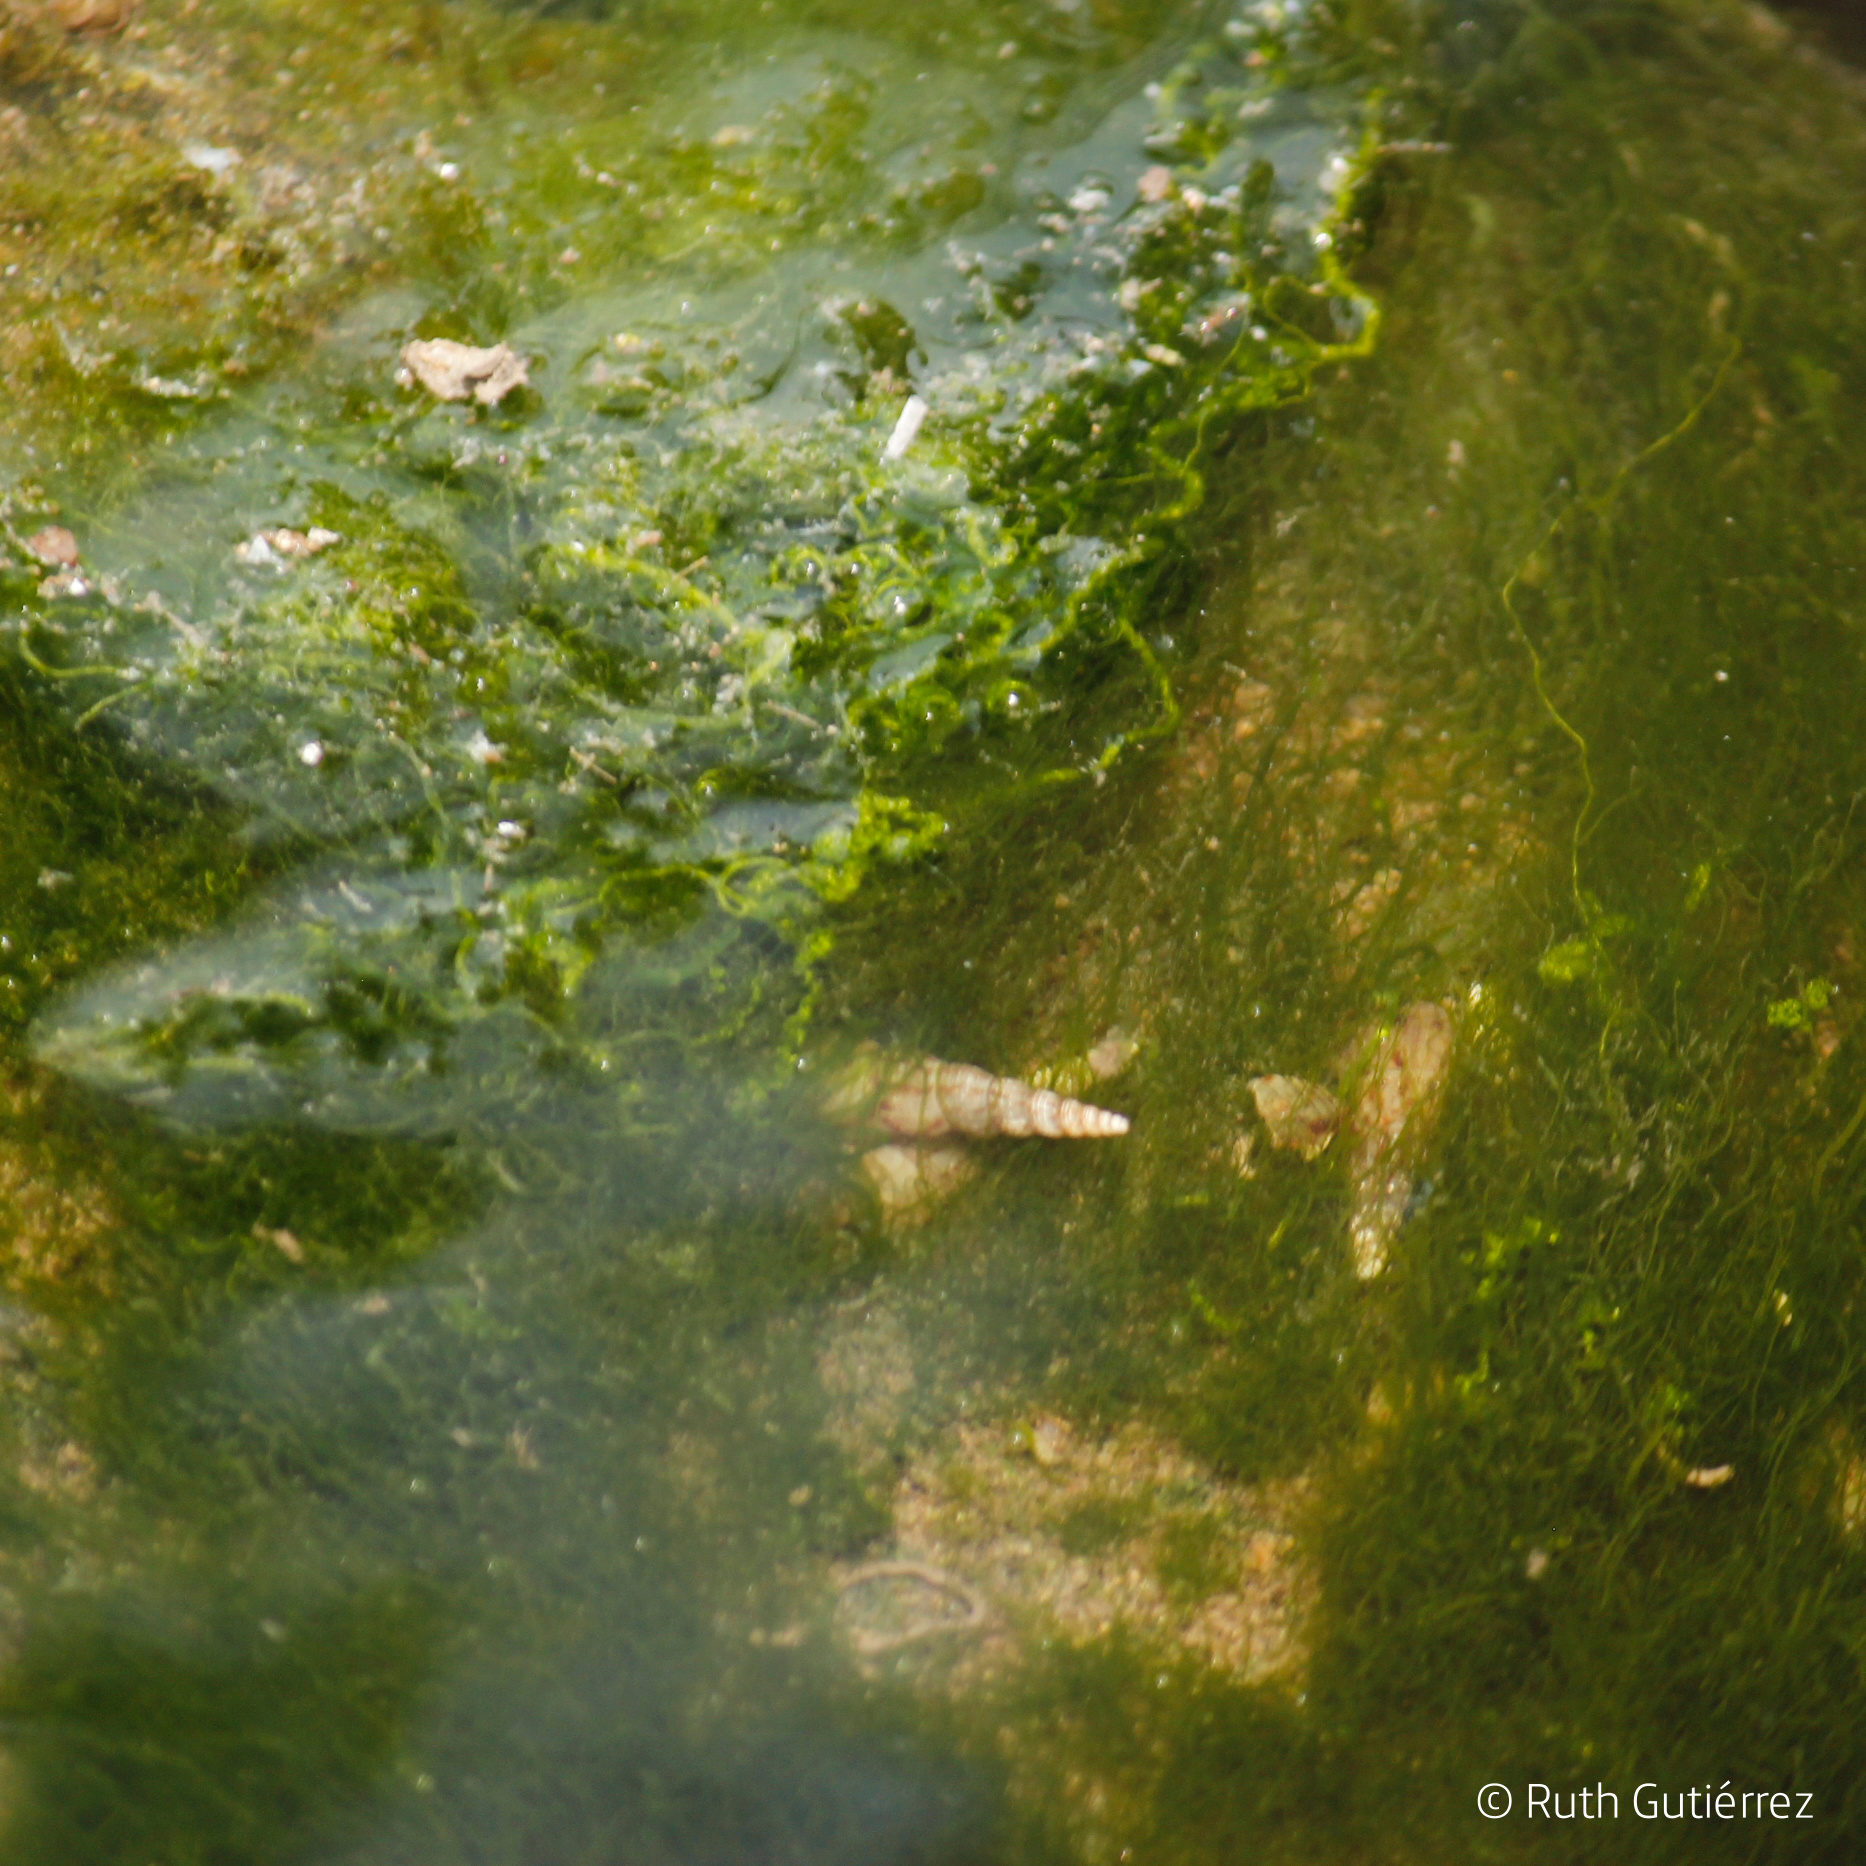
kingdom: Animalia
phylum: Mollusca
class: Gastropoda
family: Thiaridae
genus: Melanoides
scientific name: Melanoides tuberculata
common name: Red-rim melania
